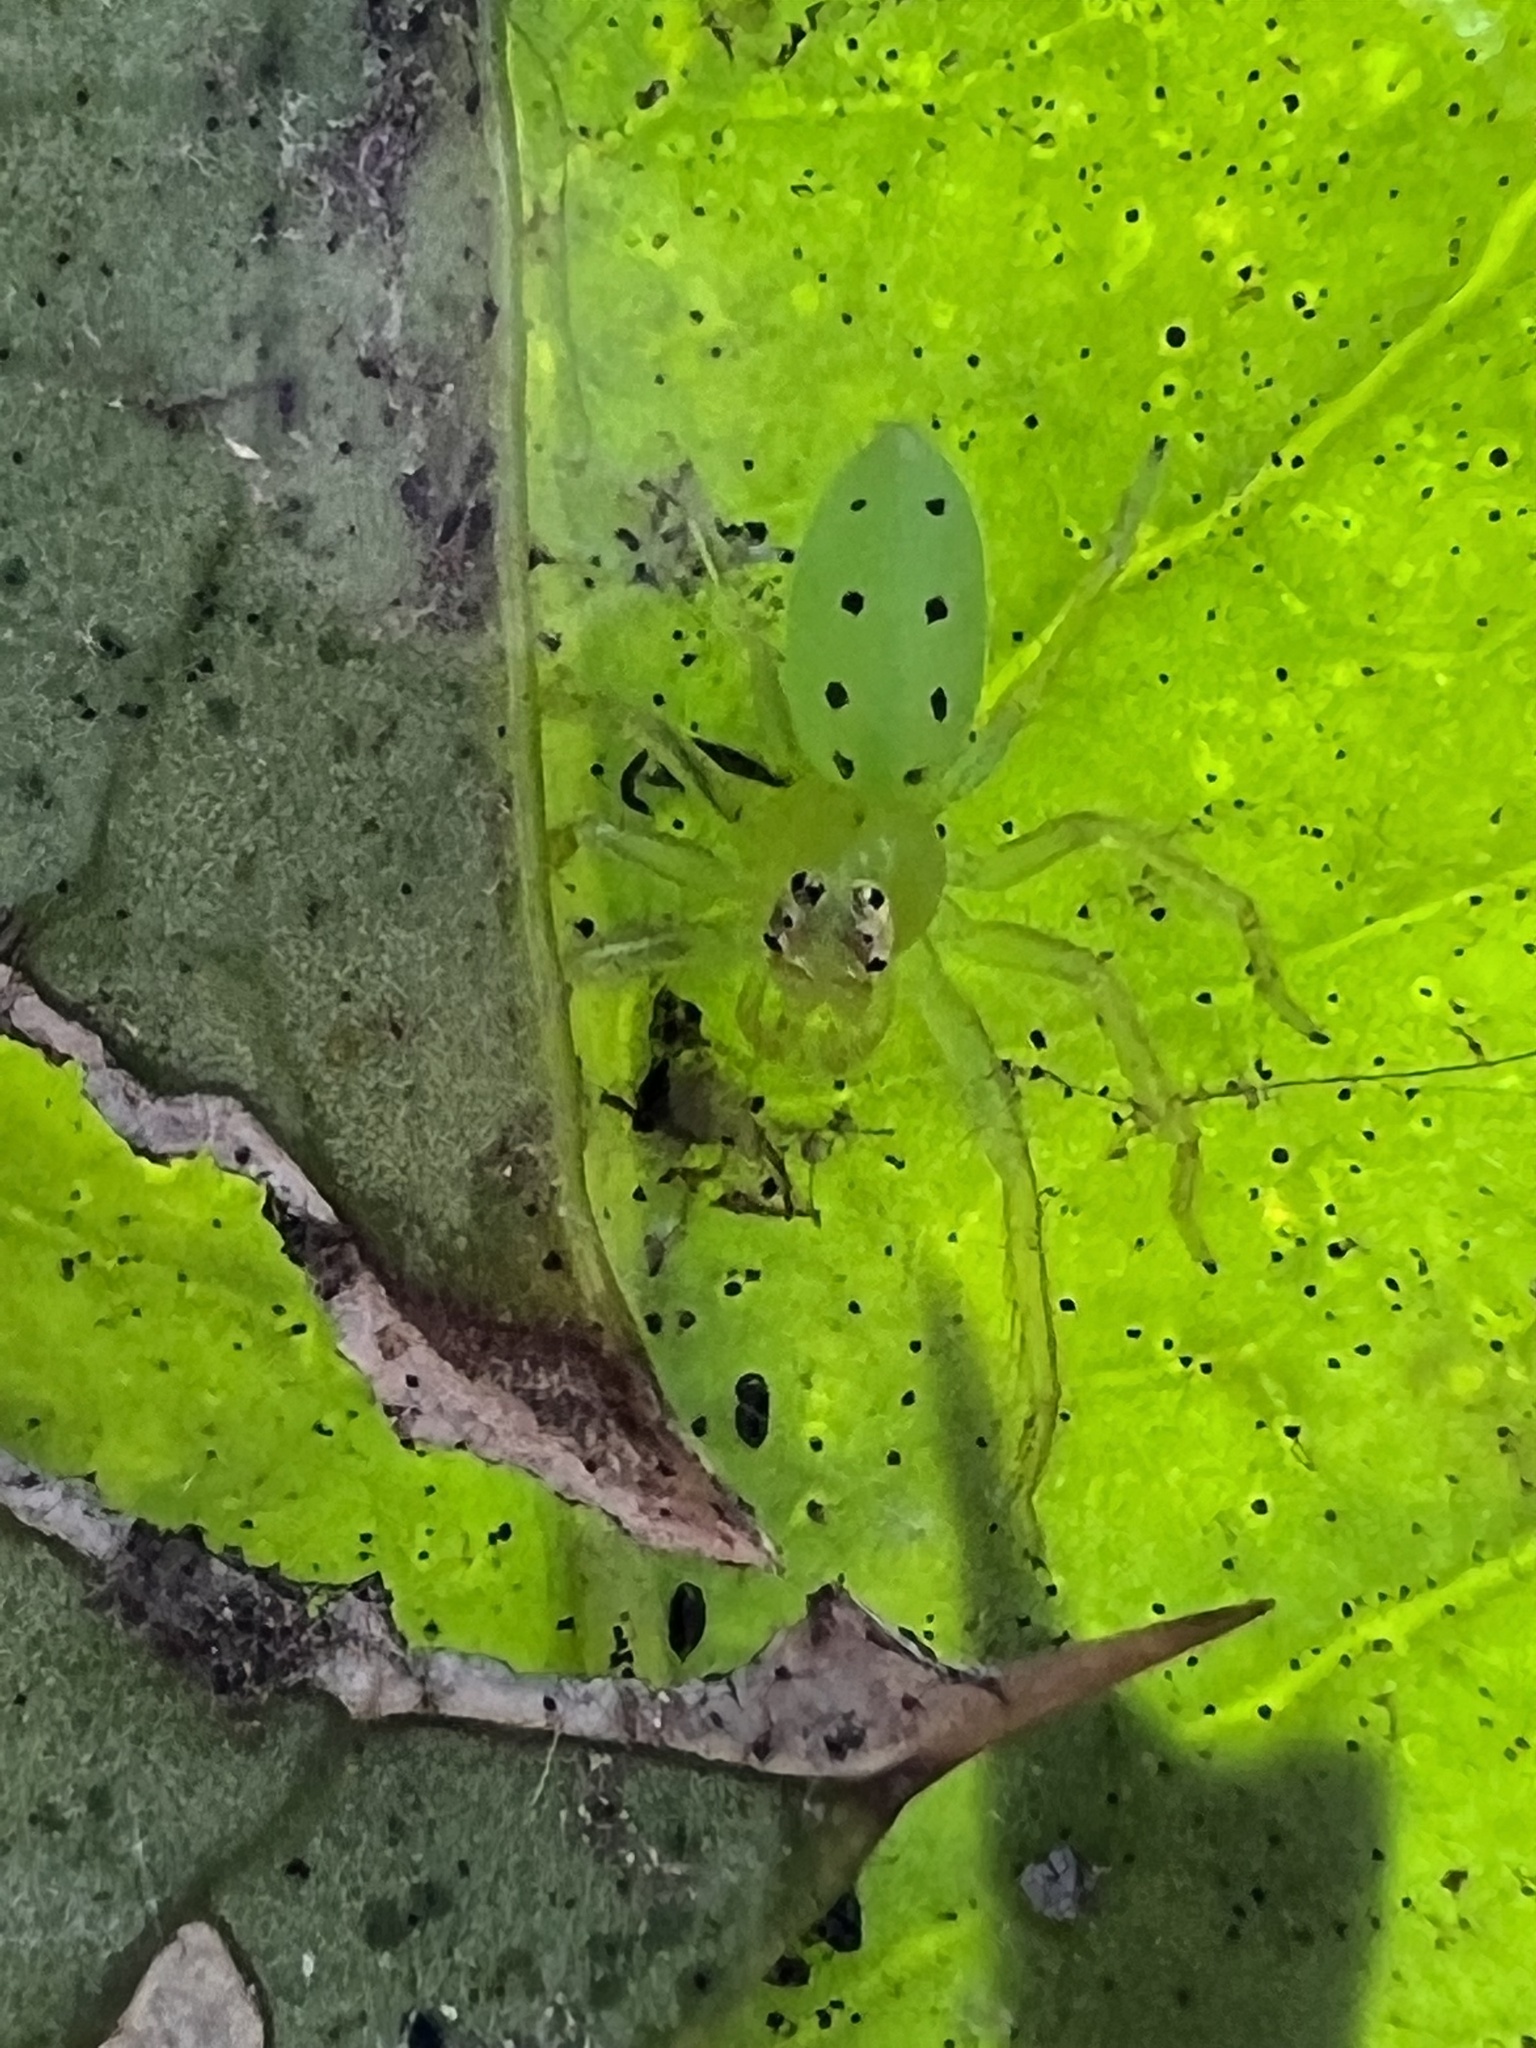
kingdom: Animalia
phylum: Arthropoda
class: Arachnida
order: Araneae
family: Salticidae
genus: Lyssomanes
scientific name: Lyssomanes viridis
